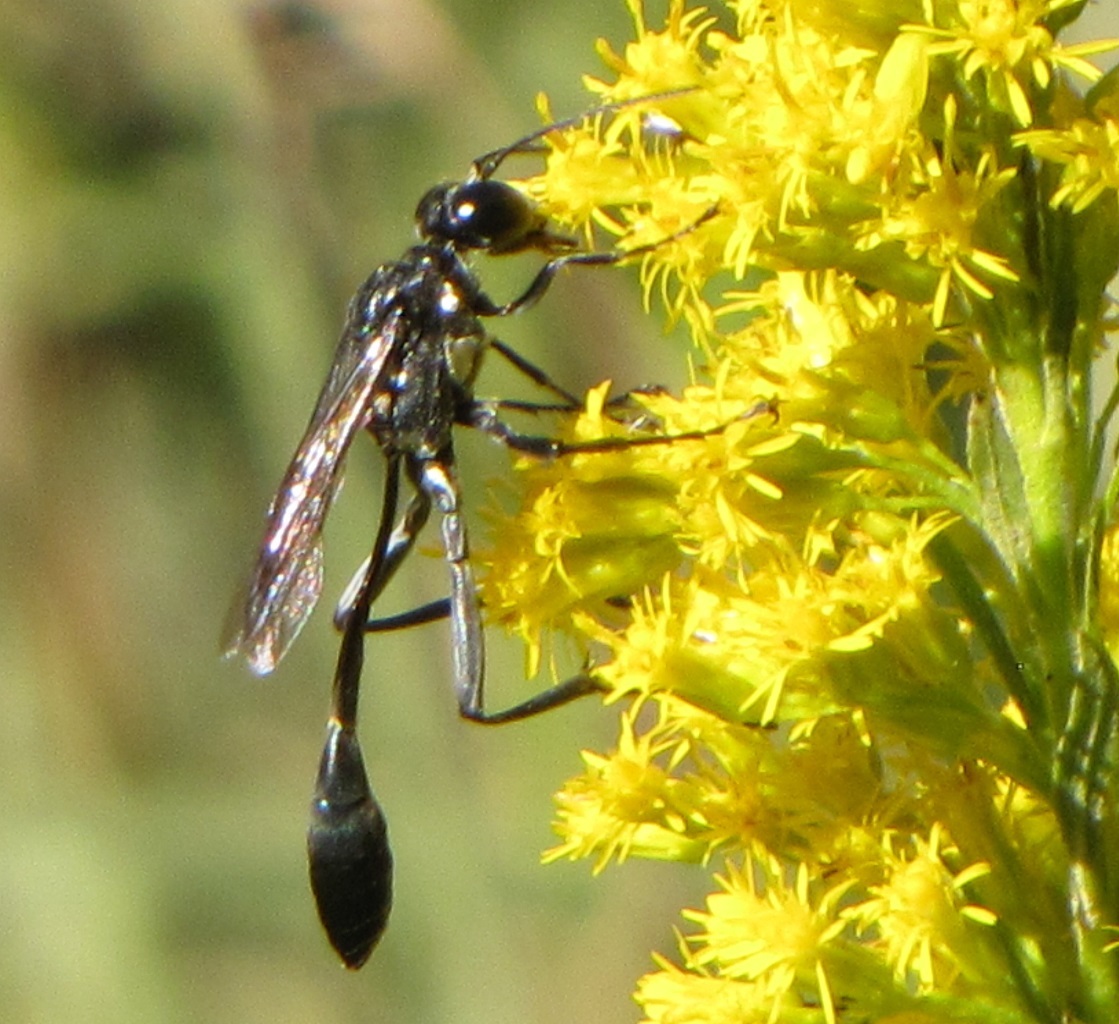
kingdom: Animalia
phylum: Arthropoda
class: Insecta
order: Hymenoptera
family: Sphecidae
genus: Eremnophila
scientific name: Eremnophila aureonotata
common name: Gold-marked thread-waisted wasp
